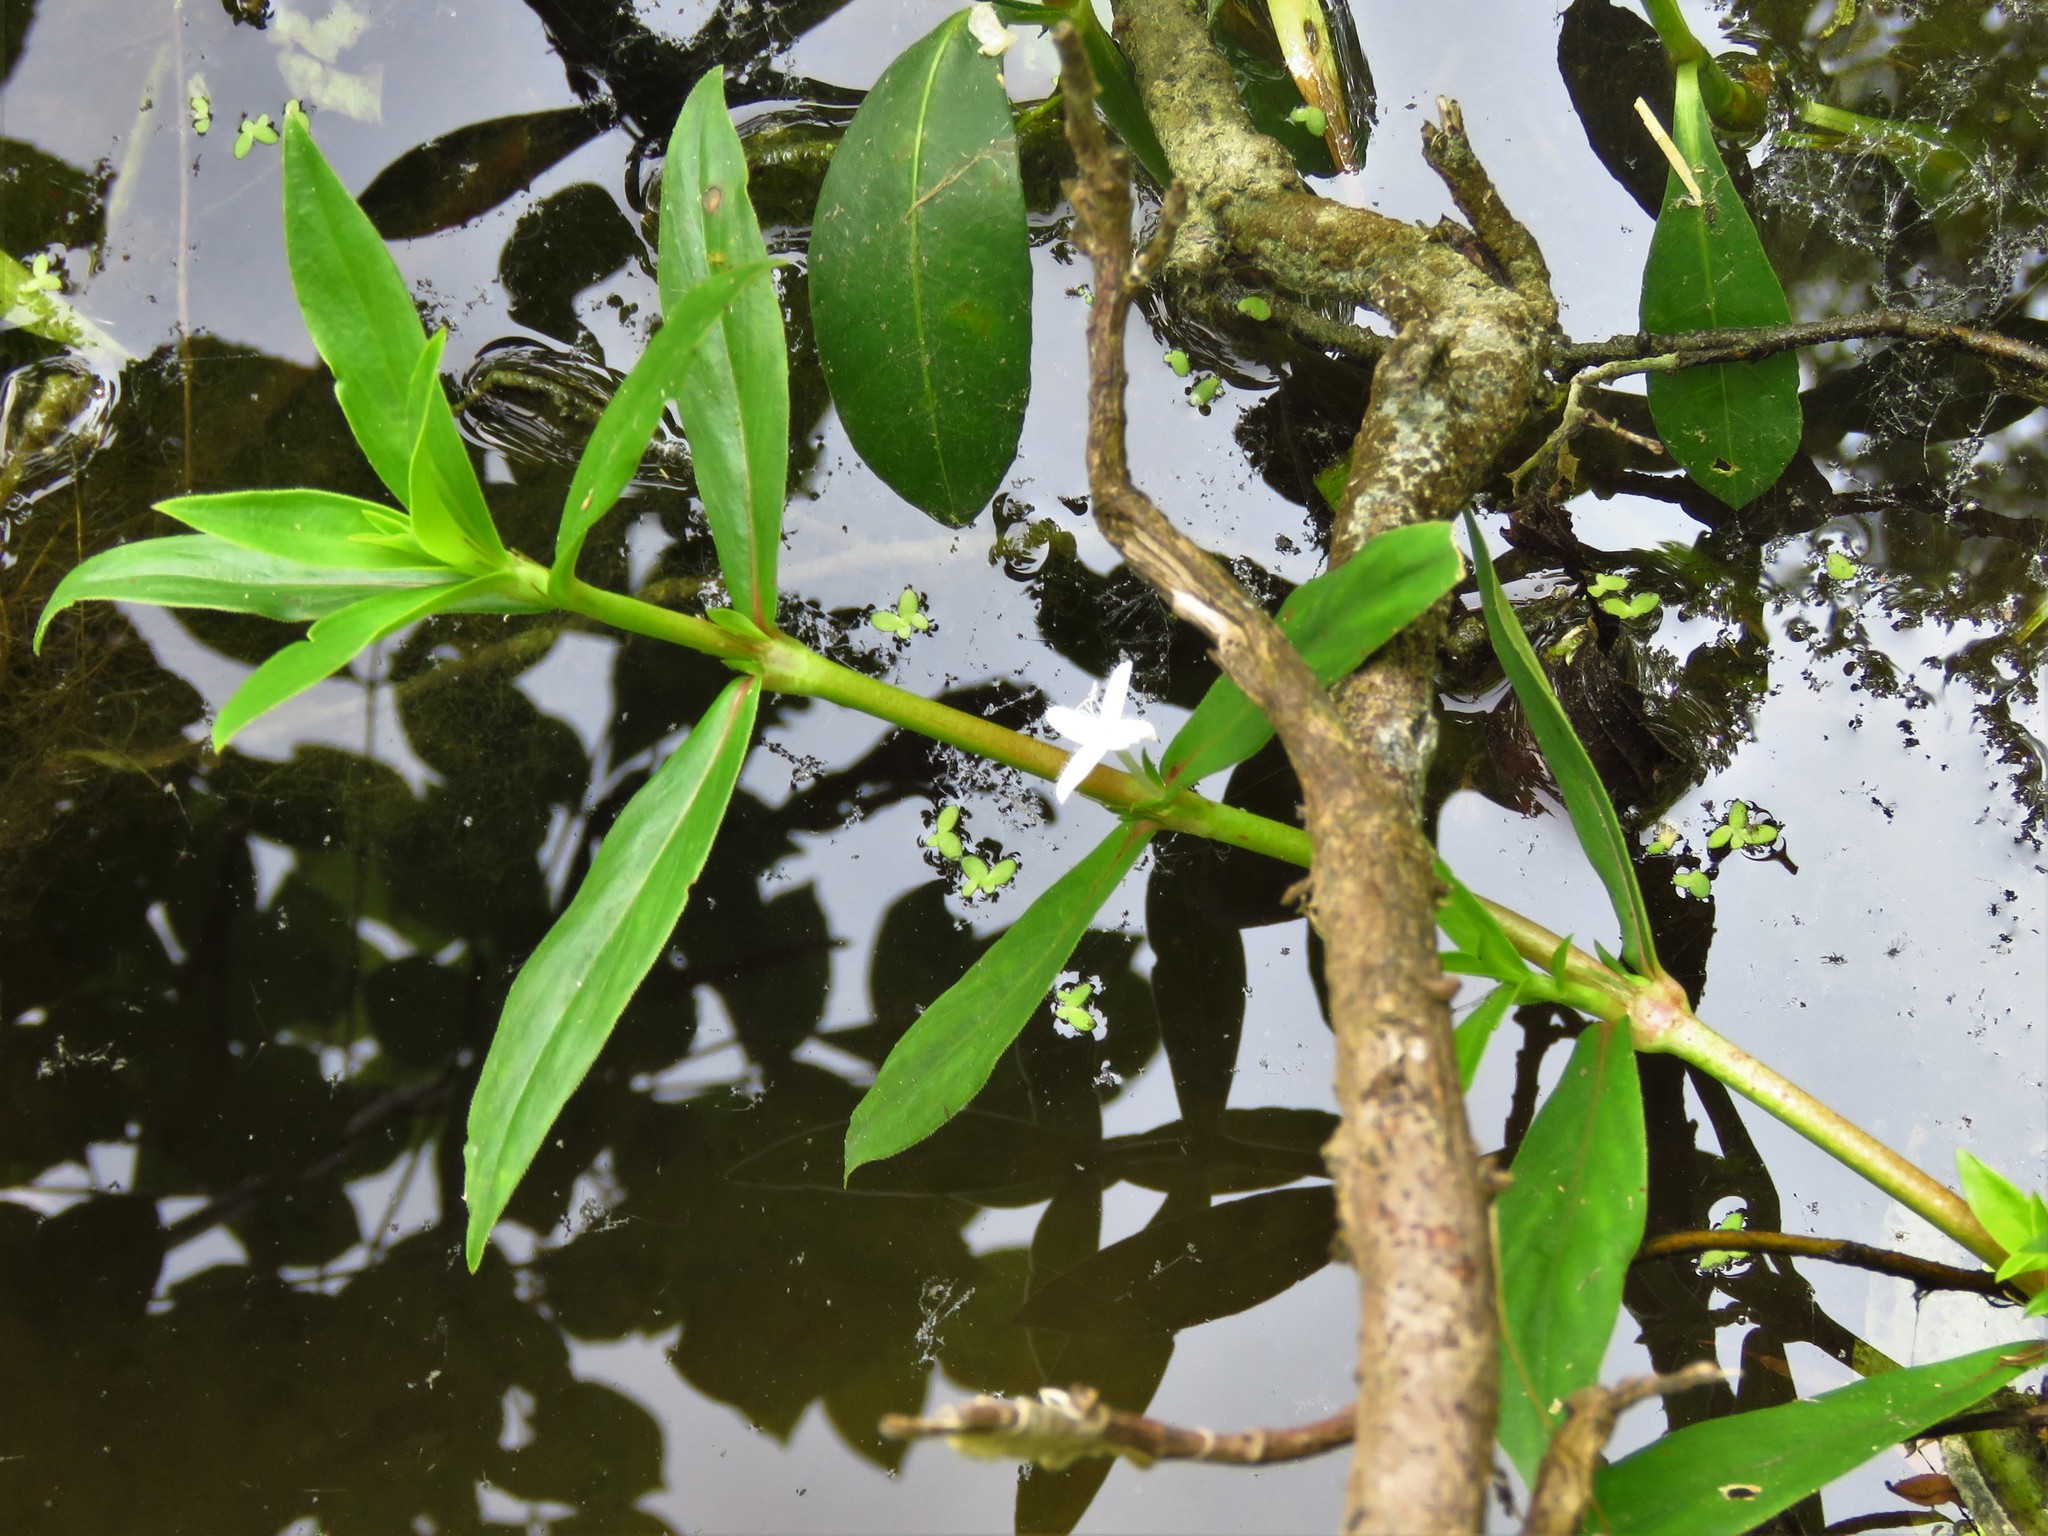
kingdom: Plantae
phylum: Tracheophyta
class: Magnoliopsida
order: Gentianales
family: Rubiaceae
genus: Diodia
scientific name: Diodia virginiana
